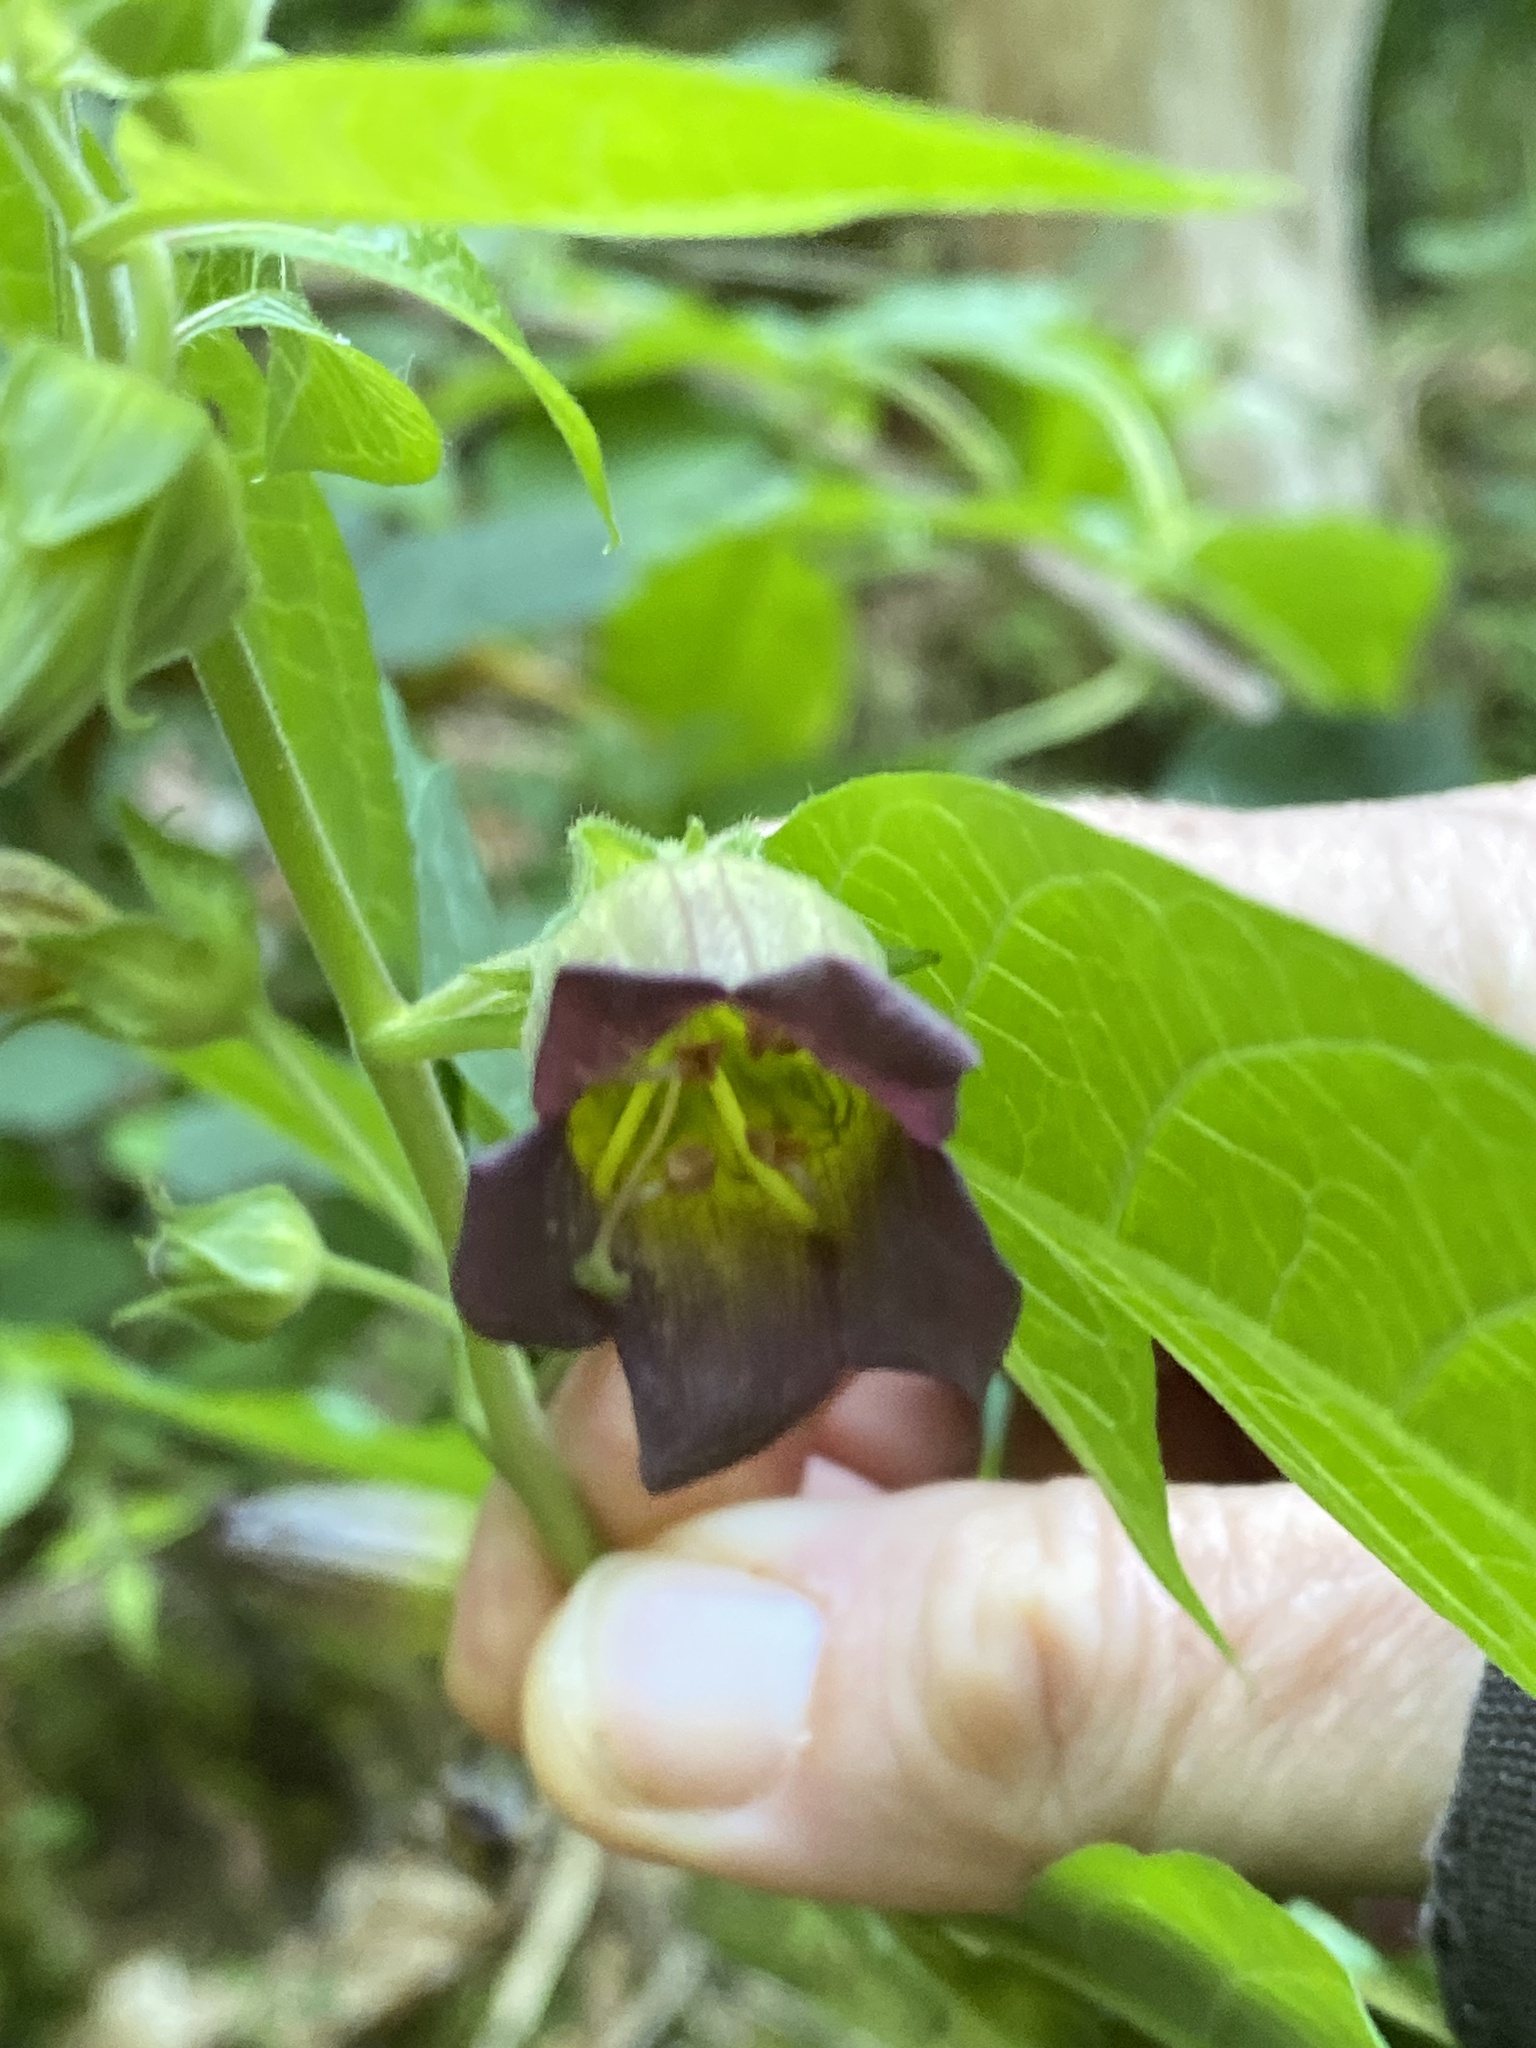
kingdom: Plantae
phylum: Tracheophyta
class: Magnoliopsida
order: Solanales
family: Solanaceae
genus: Atropa
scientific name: Atropa belladonna
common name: Deadly nightshade
